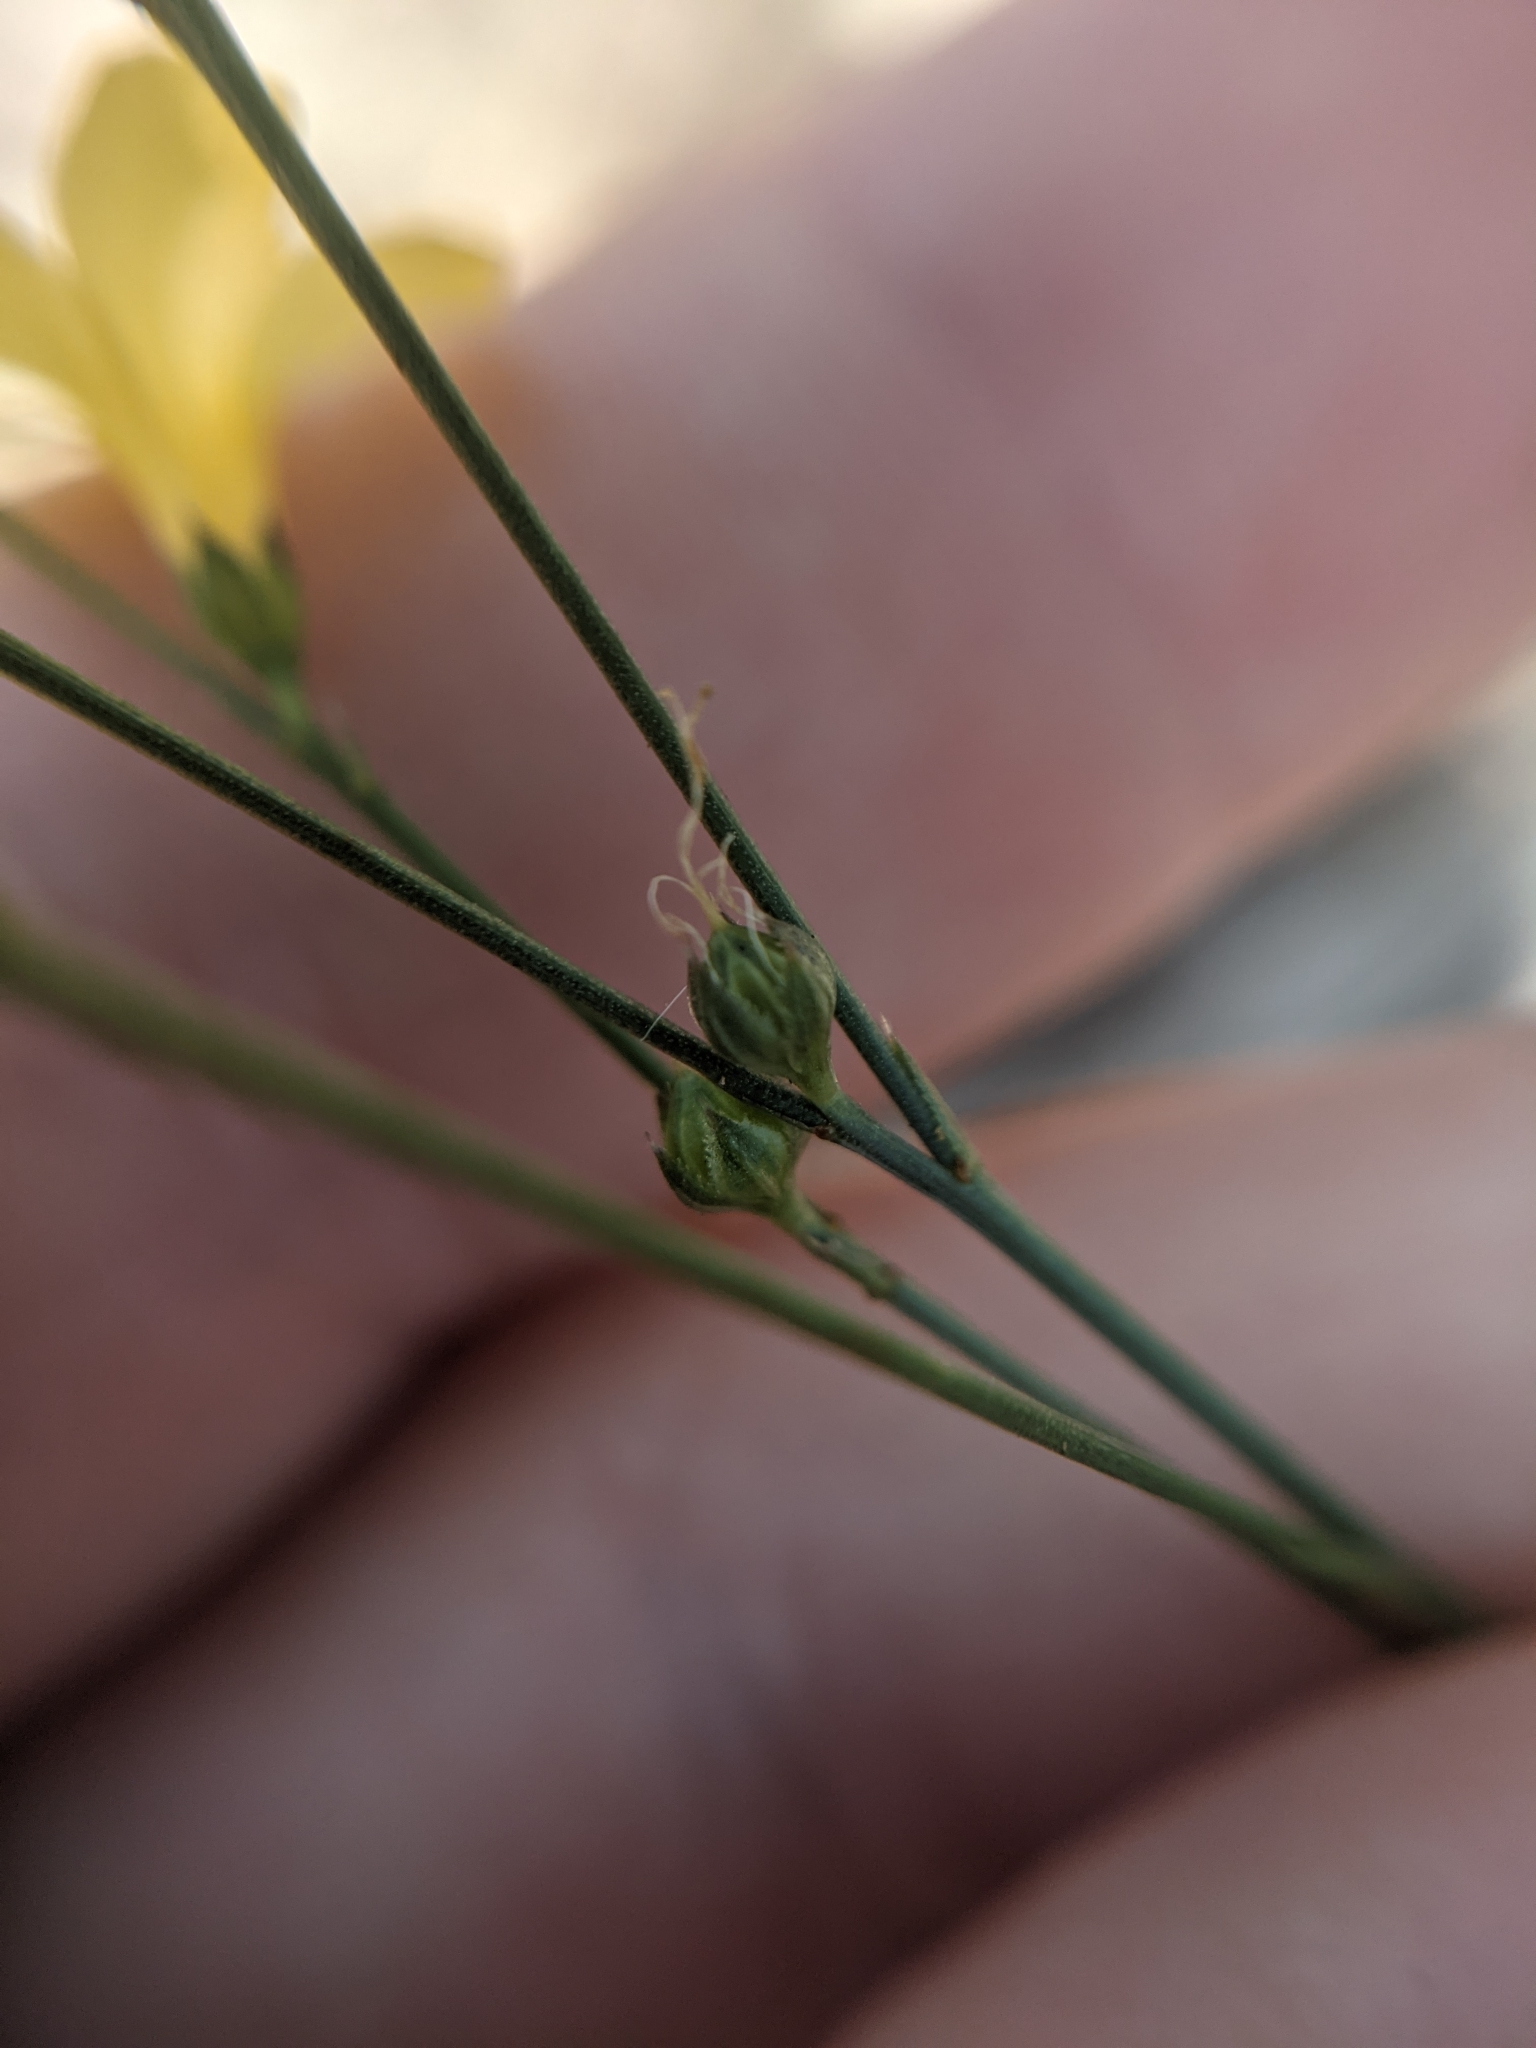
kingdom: Plantae
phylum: Tracheophyta
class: Magnoliopsida
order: Malpighiales
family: Linaceae
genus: Linum
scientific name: Linum rupestre
